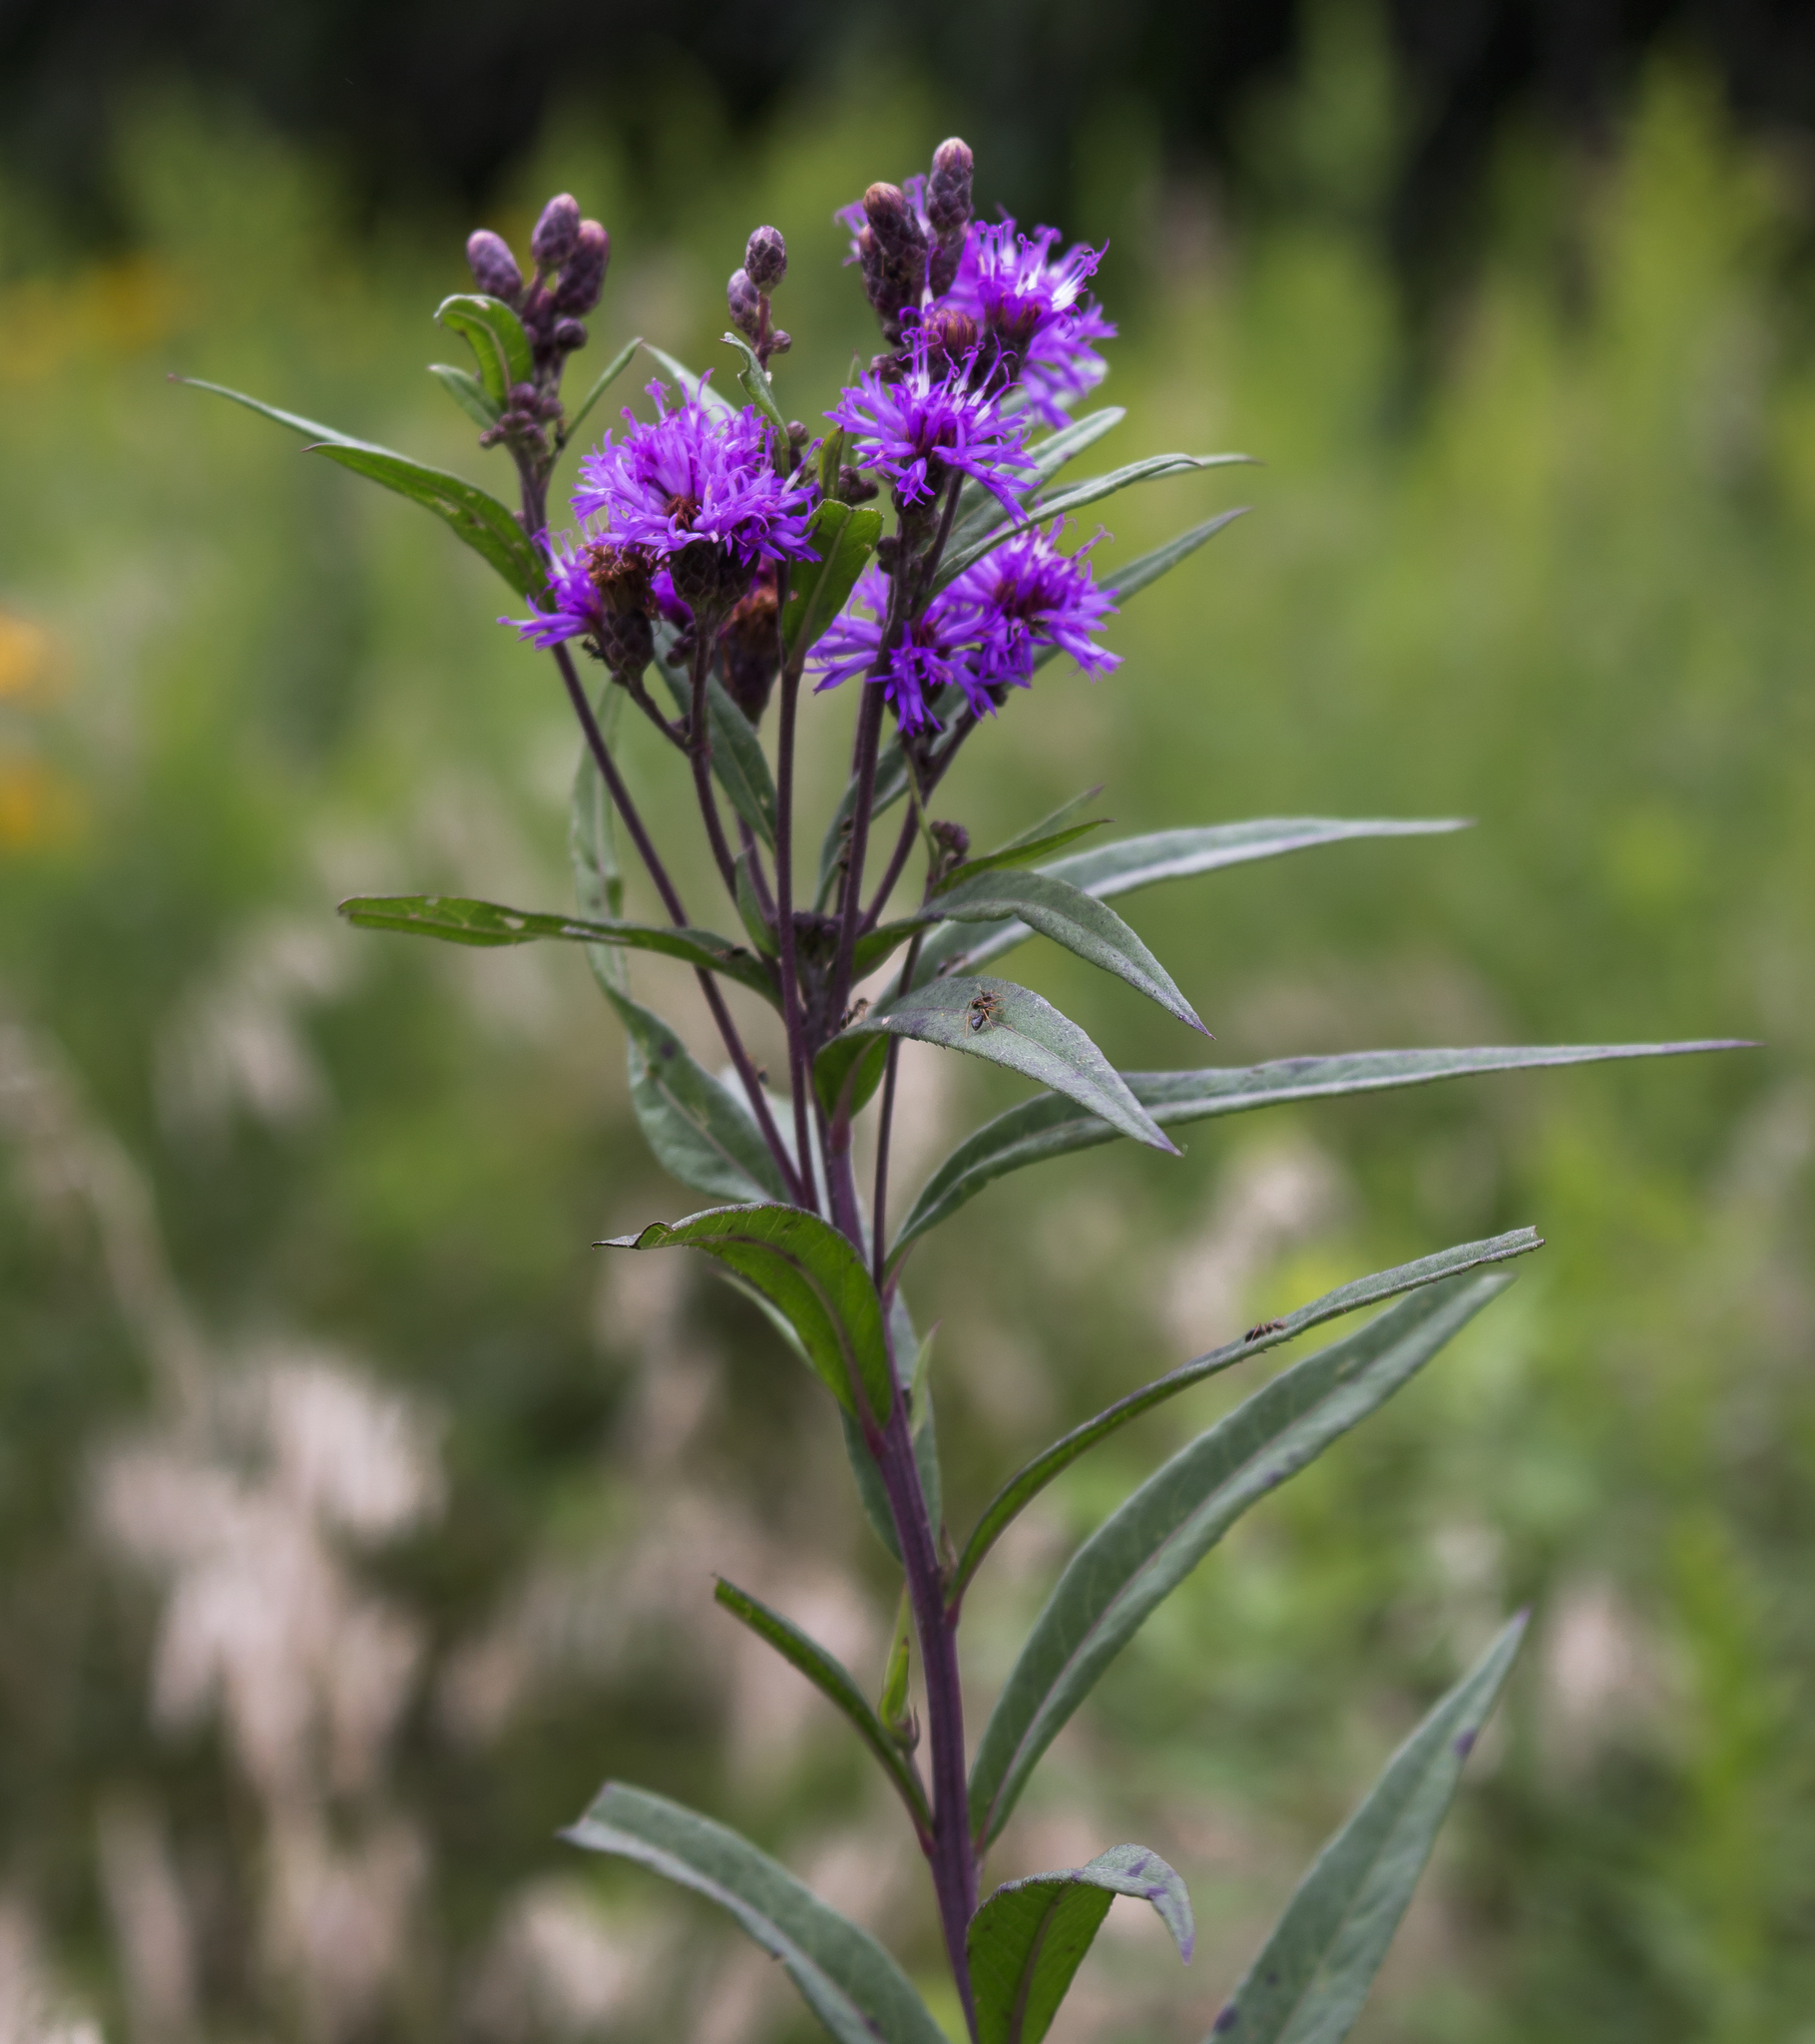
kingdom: Plantae
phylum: Tracheophyta
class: Magnoliopsida
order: Asterales
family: Asteraceae
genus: Vernonia
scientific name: Vernonia fasciculata
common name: Fascicled ironweed
